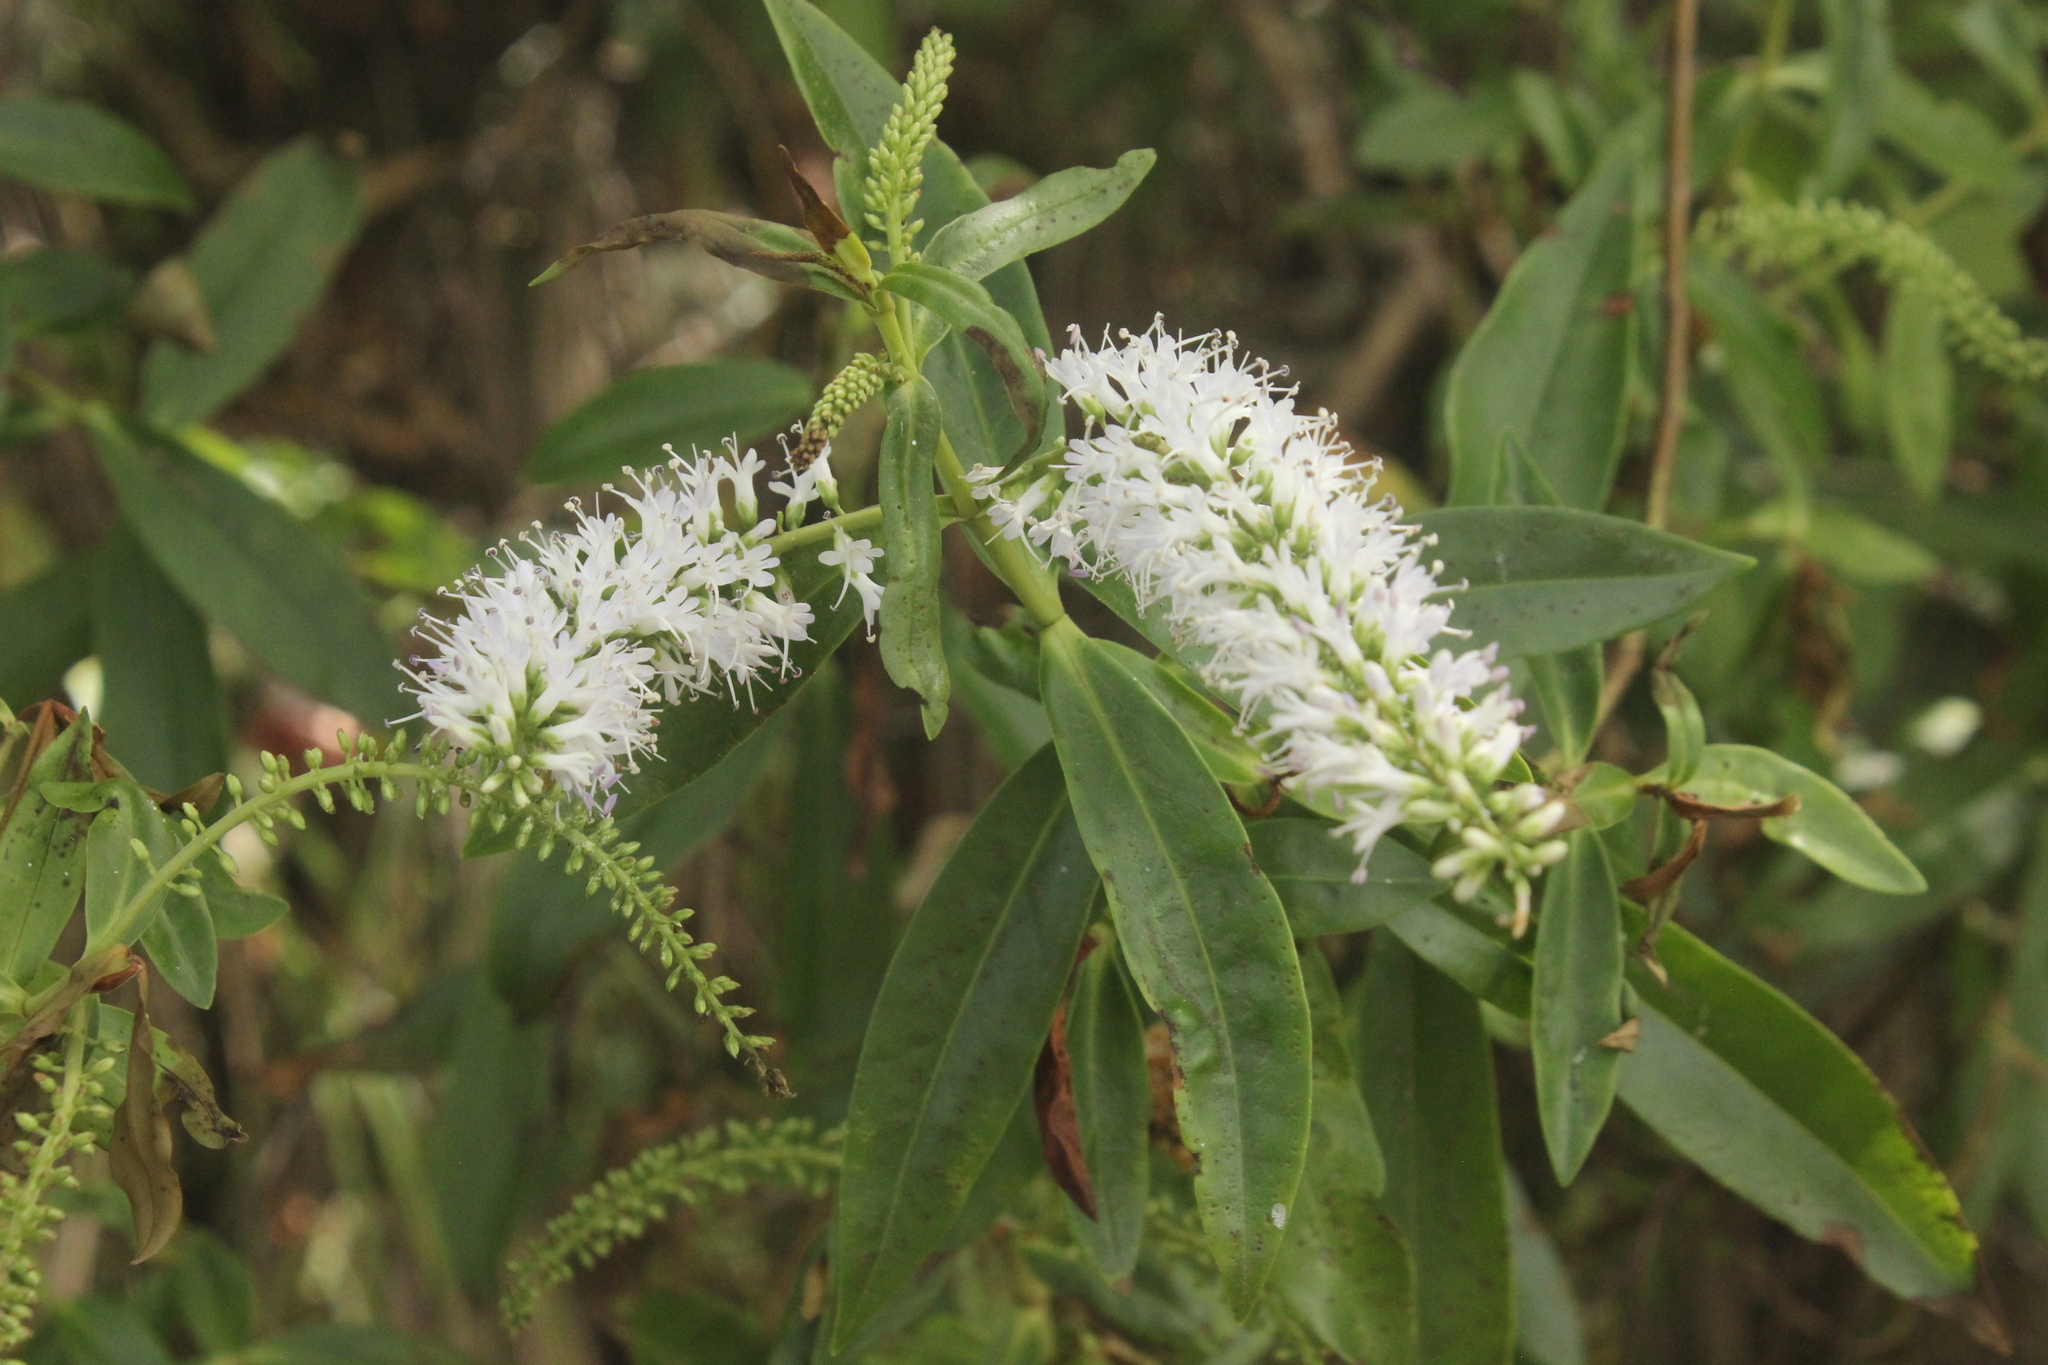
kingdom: Plantae
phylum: Tracheophyta
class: Magnoliopsida
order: Lamiales
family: Plantaginaceae
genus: Veronica
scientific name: Veronica stricta
